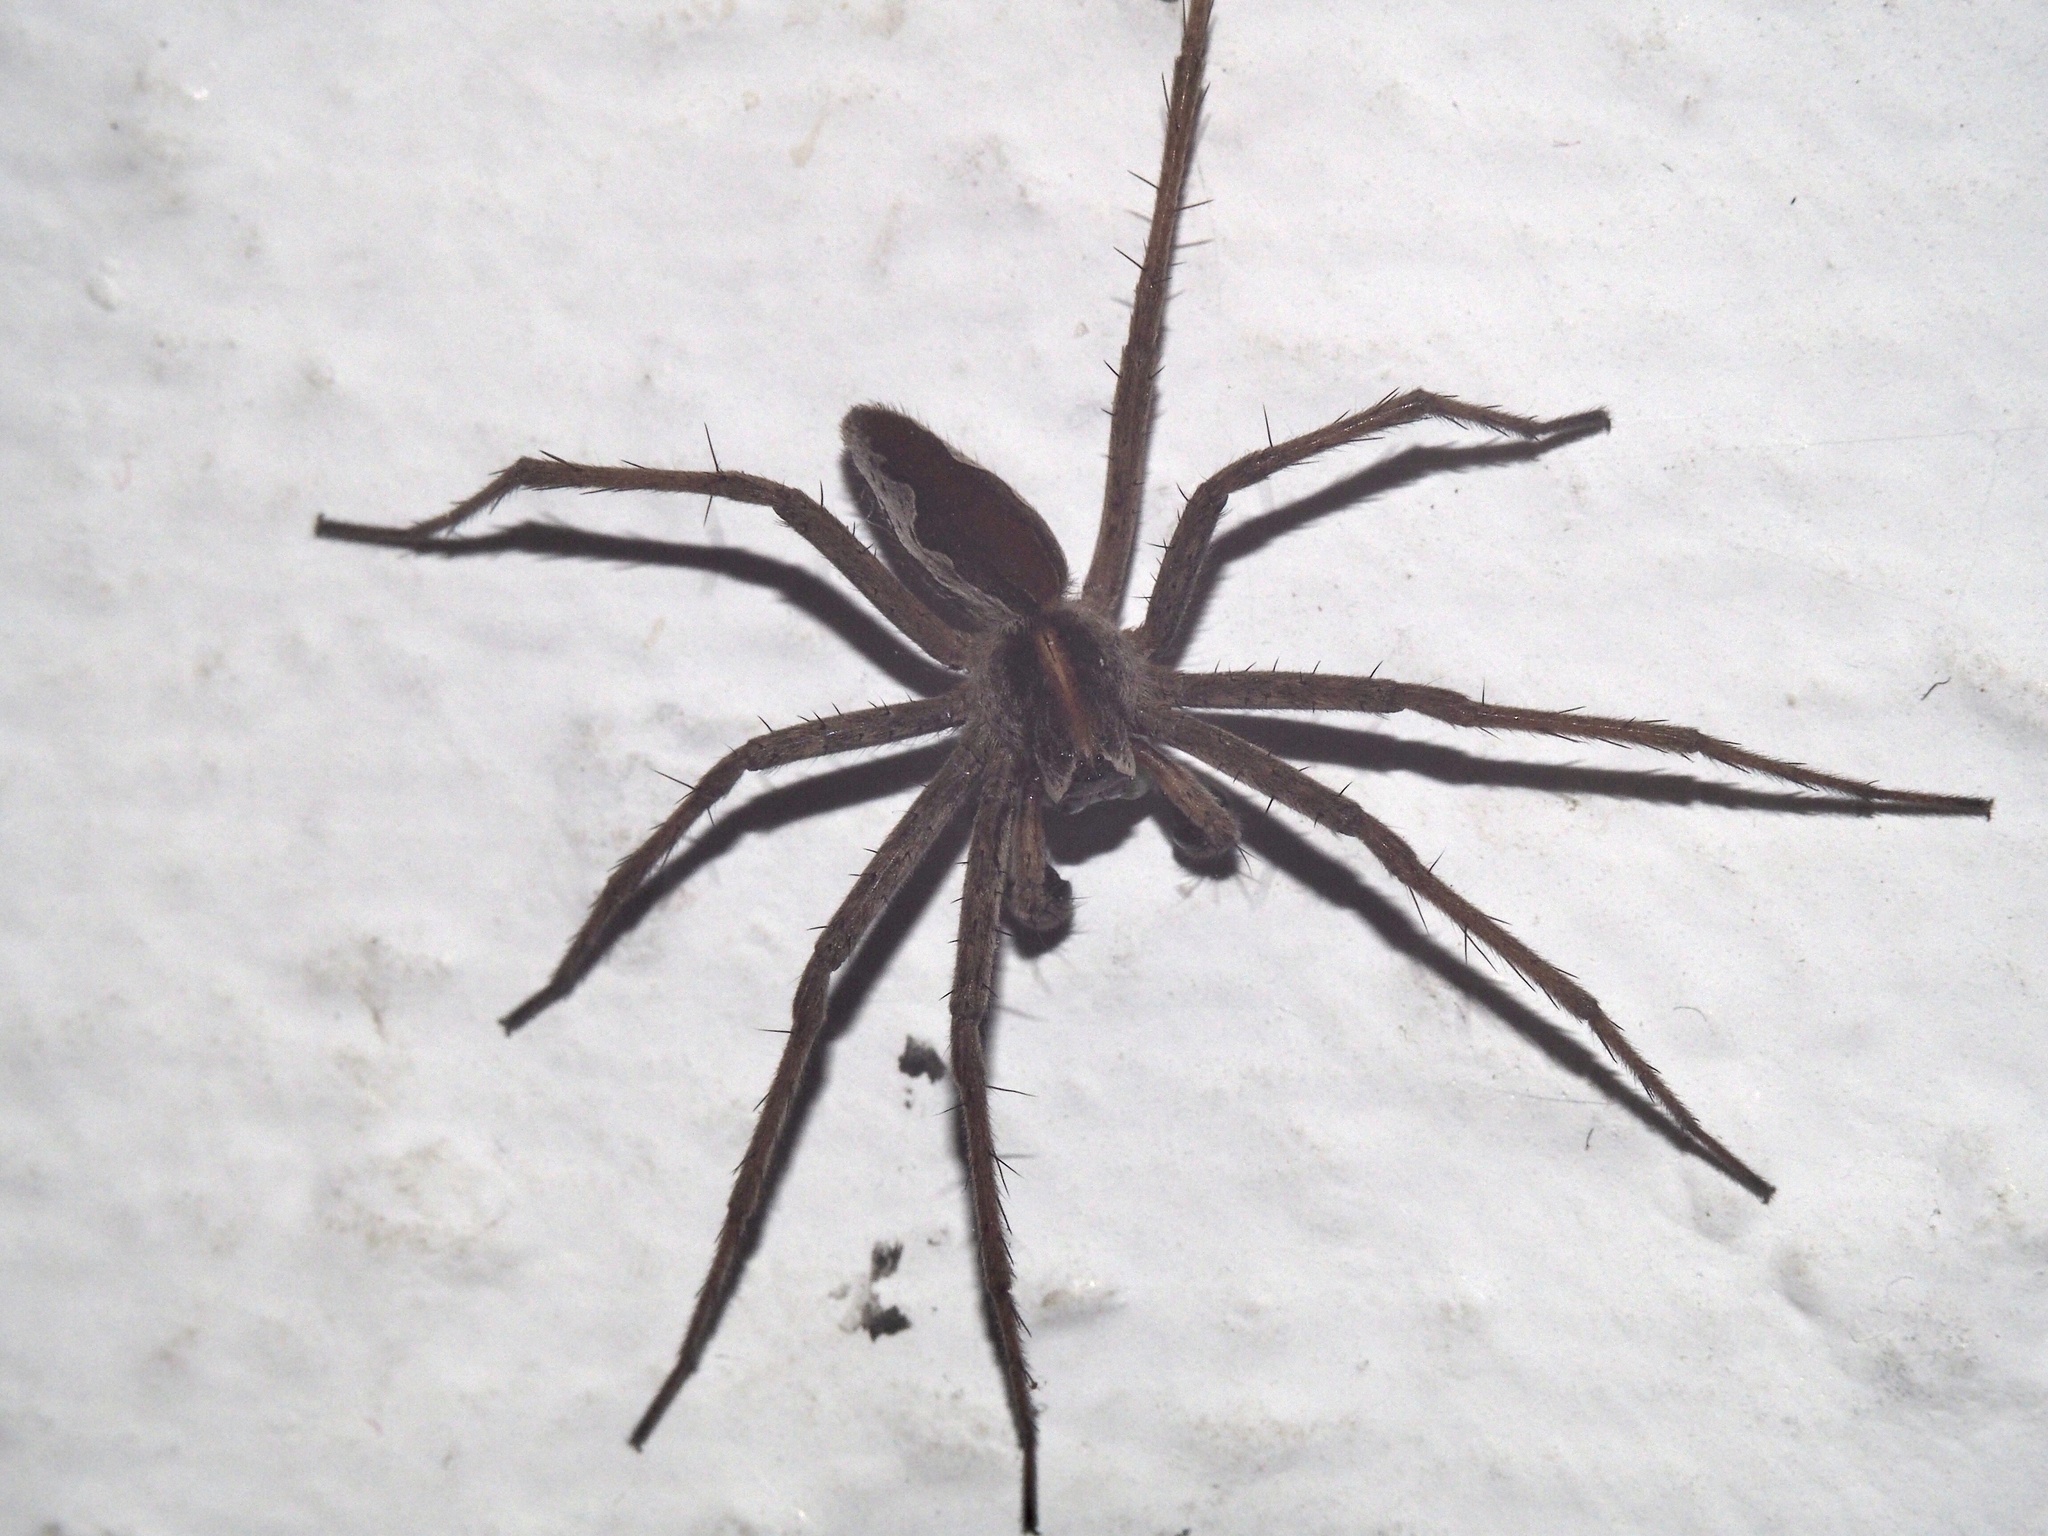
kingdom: Animalia
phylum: Arthropoda
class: Arachnida
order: Araneae
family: Pisauridae
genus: Pisaura
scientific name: Pisaura mirabilis
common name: Tent spider
